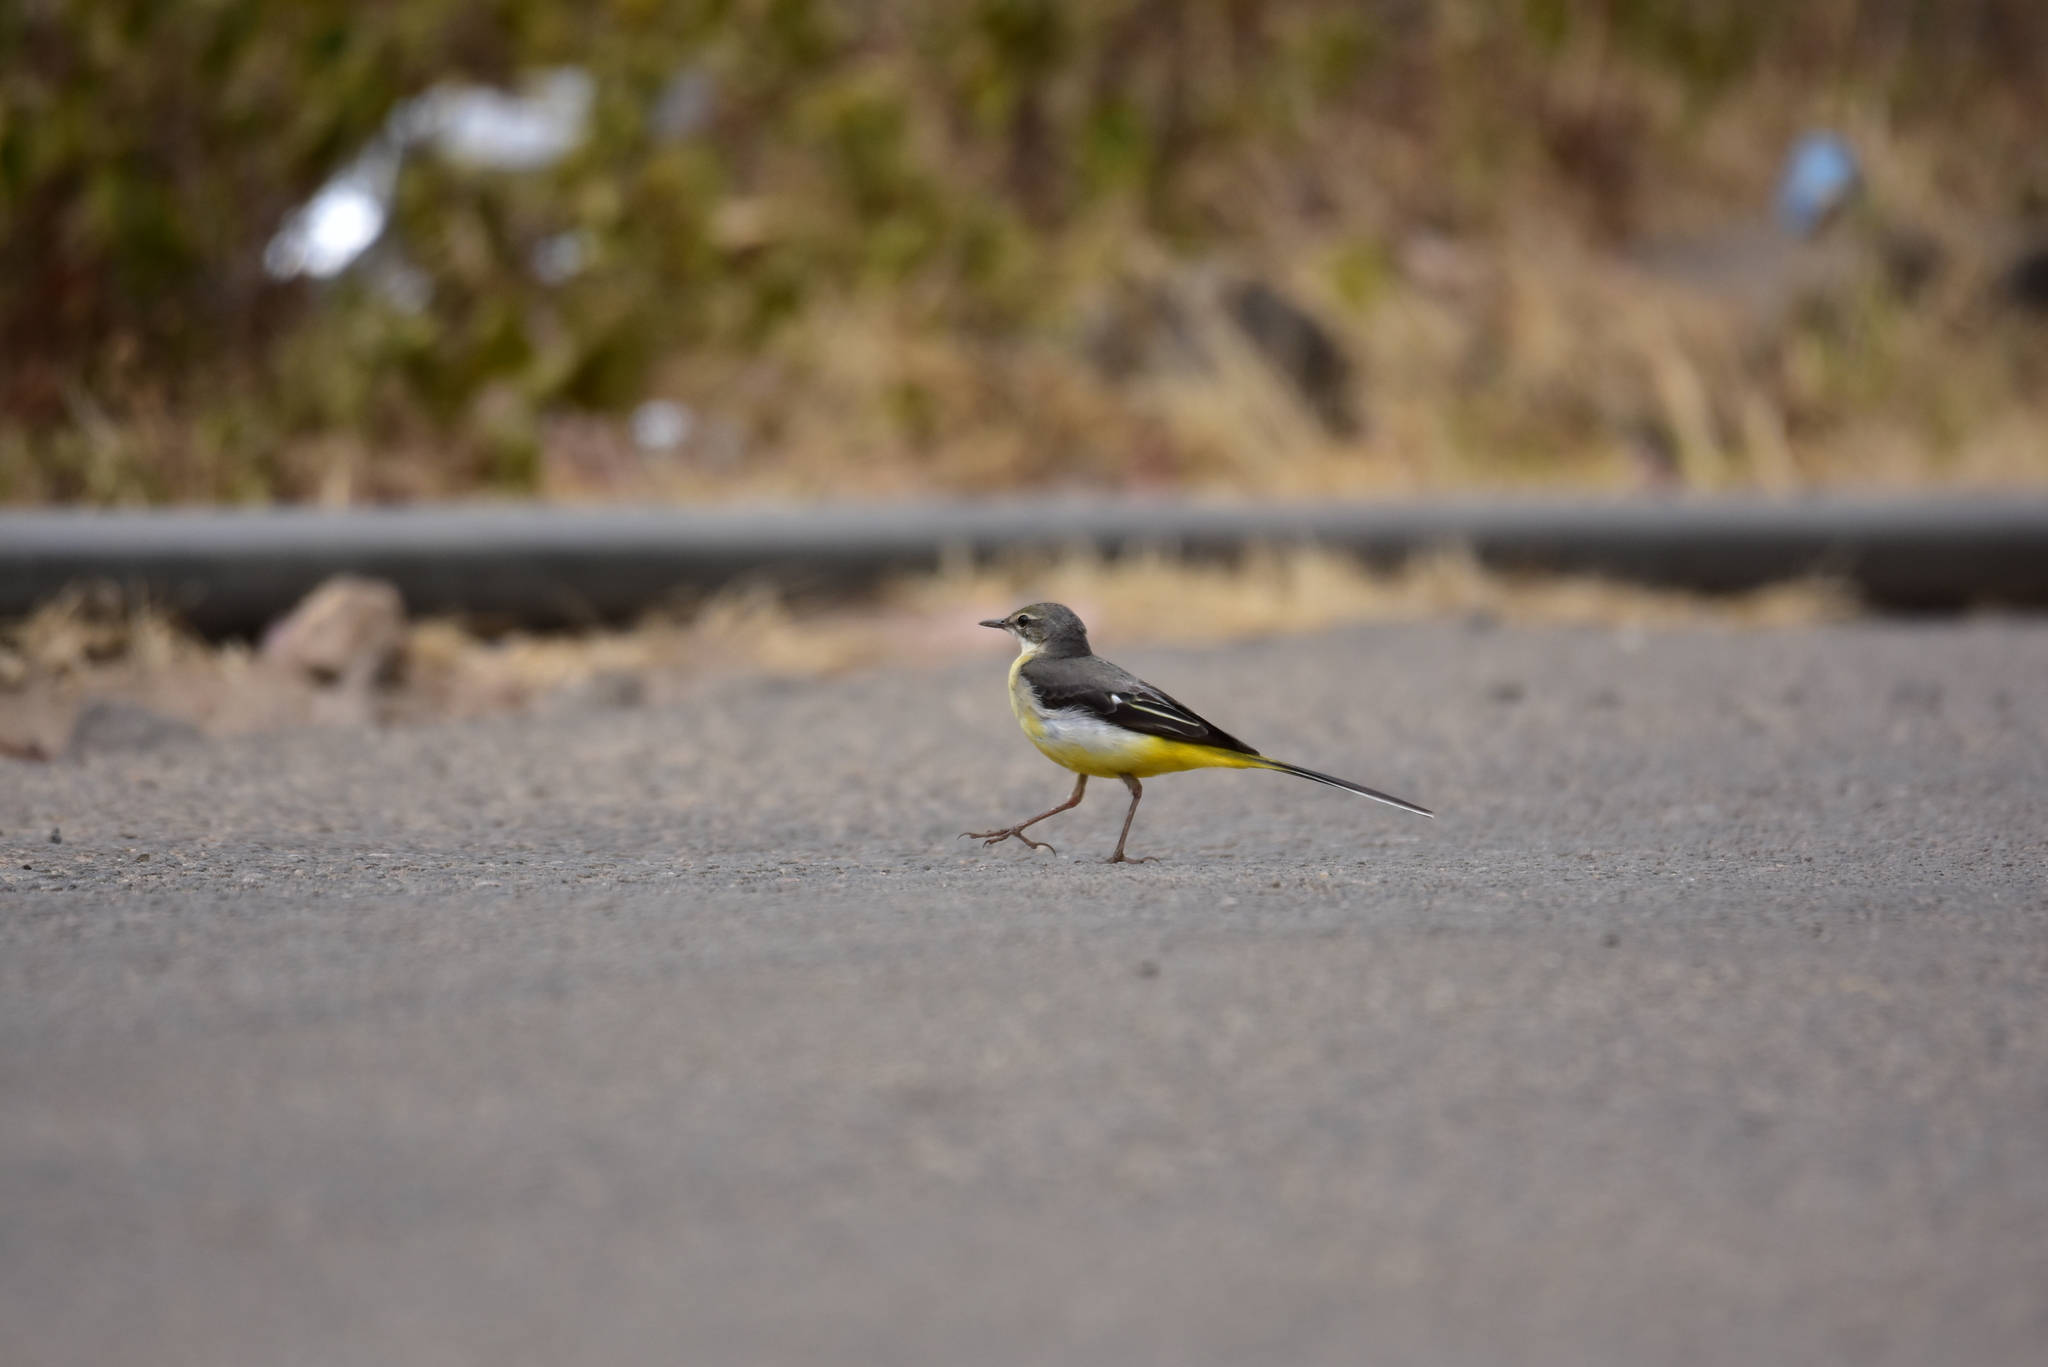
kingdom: Animalia
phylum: Chordata
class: Aves
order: Passeriformes
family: Motacillidae
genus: Motacilla
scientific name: Motacilla cinerea
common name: Grey wagtail
